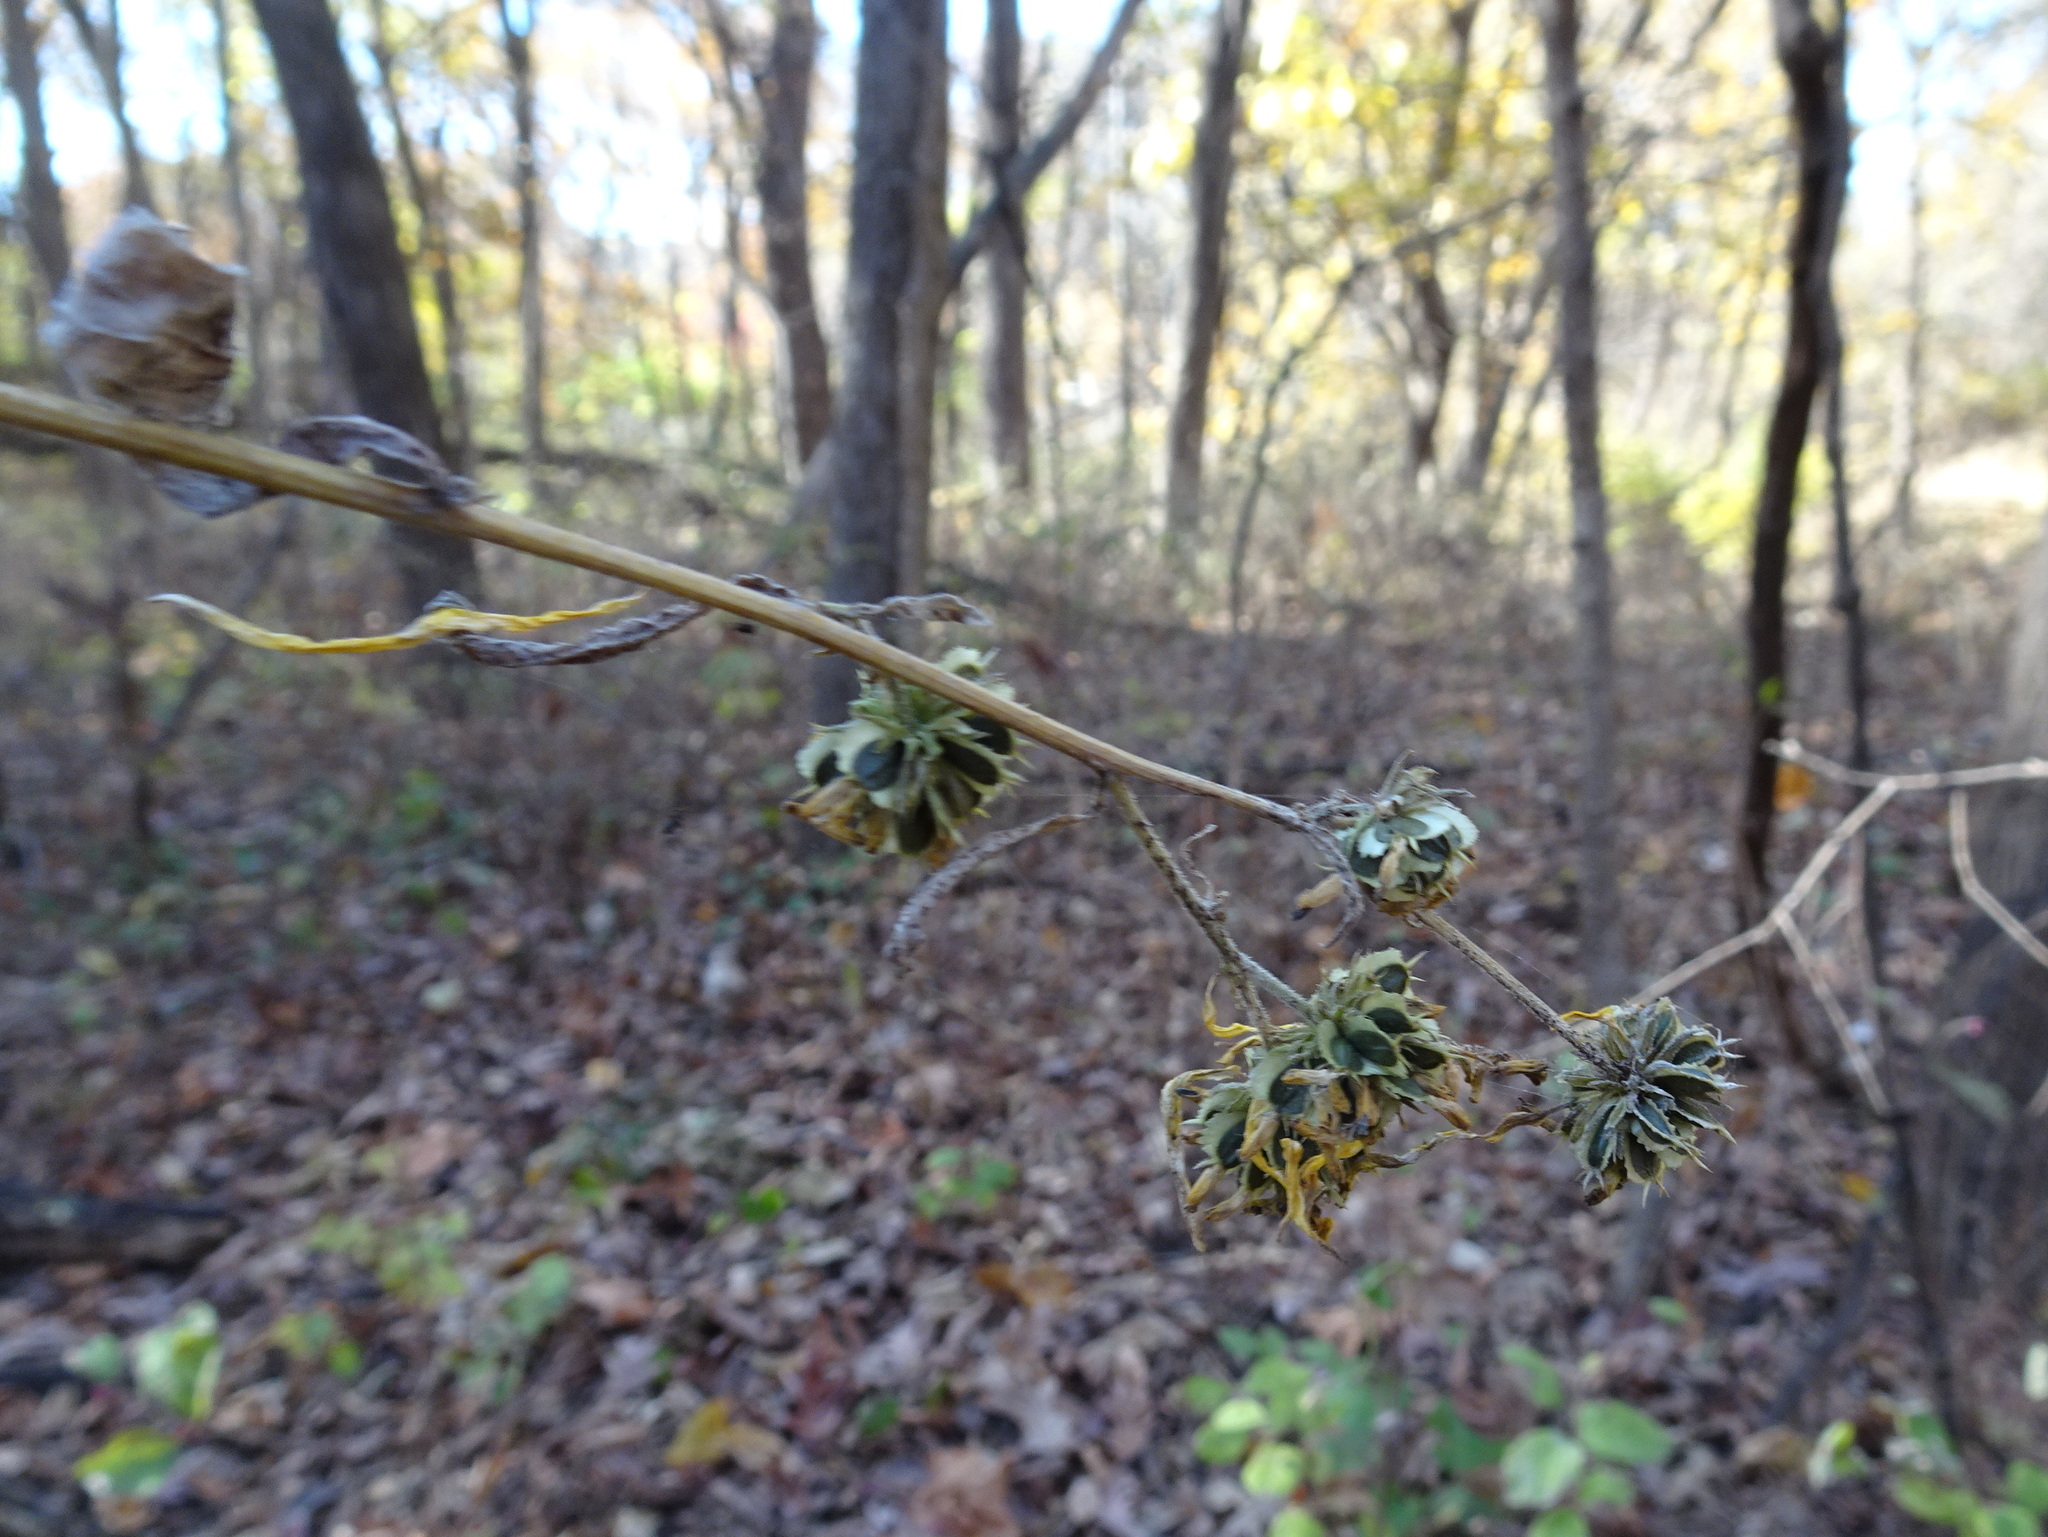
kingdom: Plantae
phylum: Tracheophyta
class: Magnoliopsida
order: Asterales
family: Asteraceae
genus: Verbesina
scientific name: Verbesina alternifolia
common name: Wingstem
